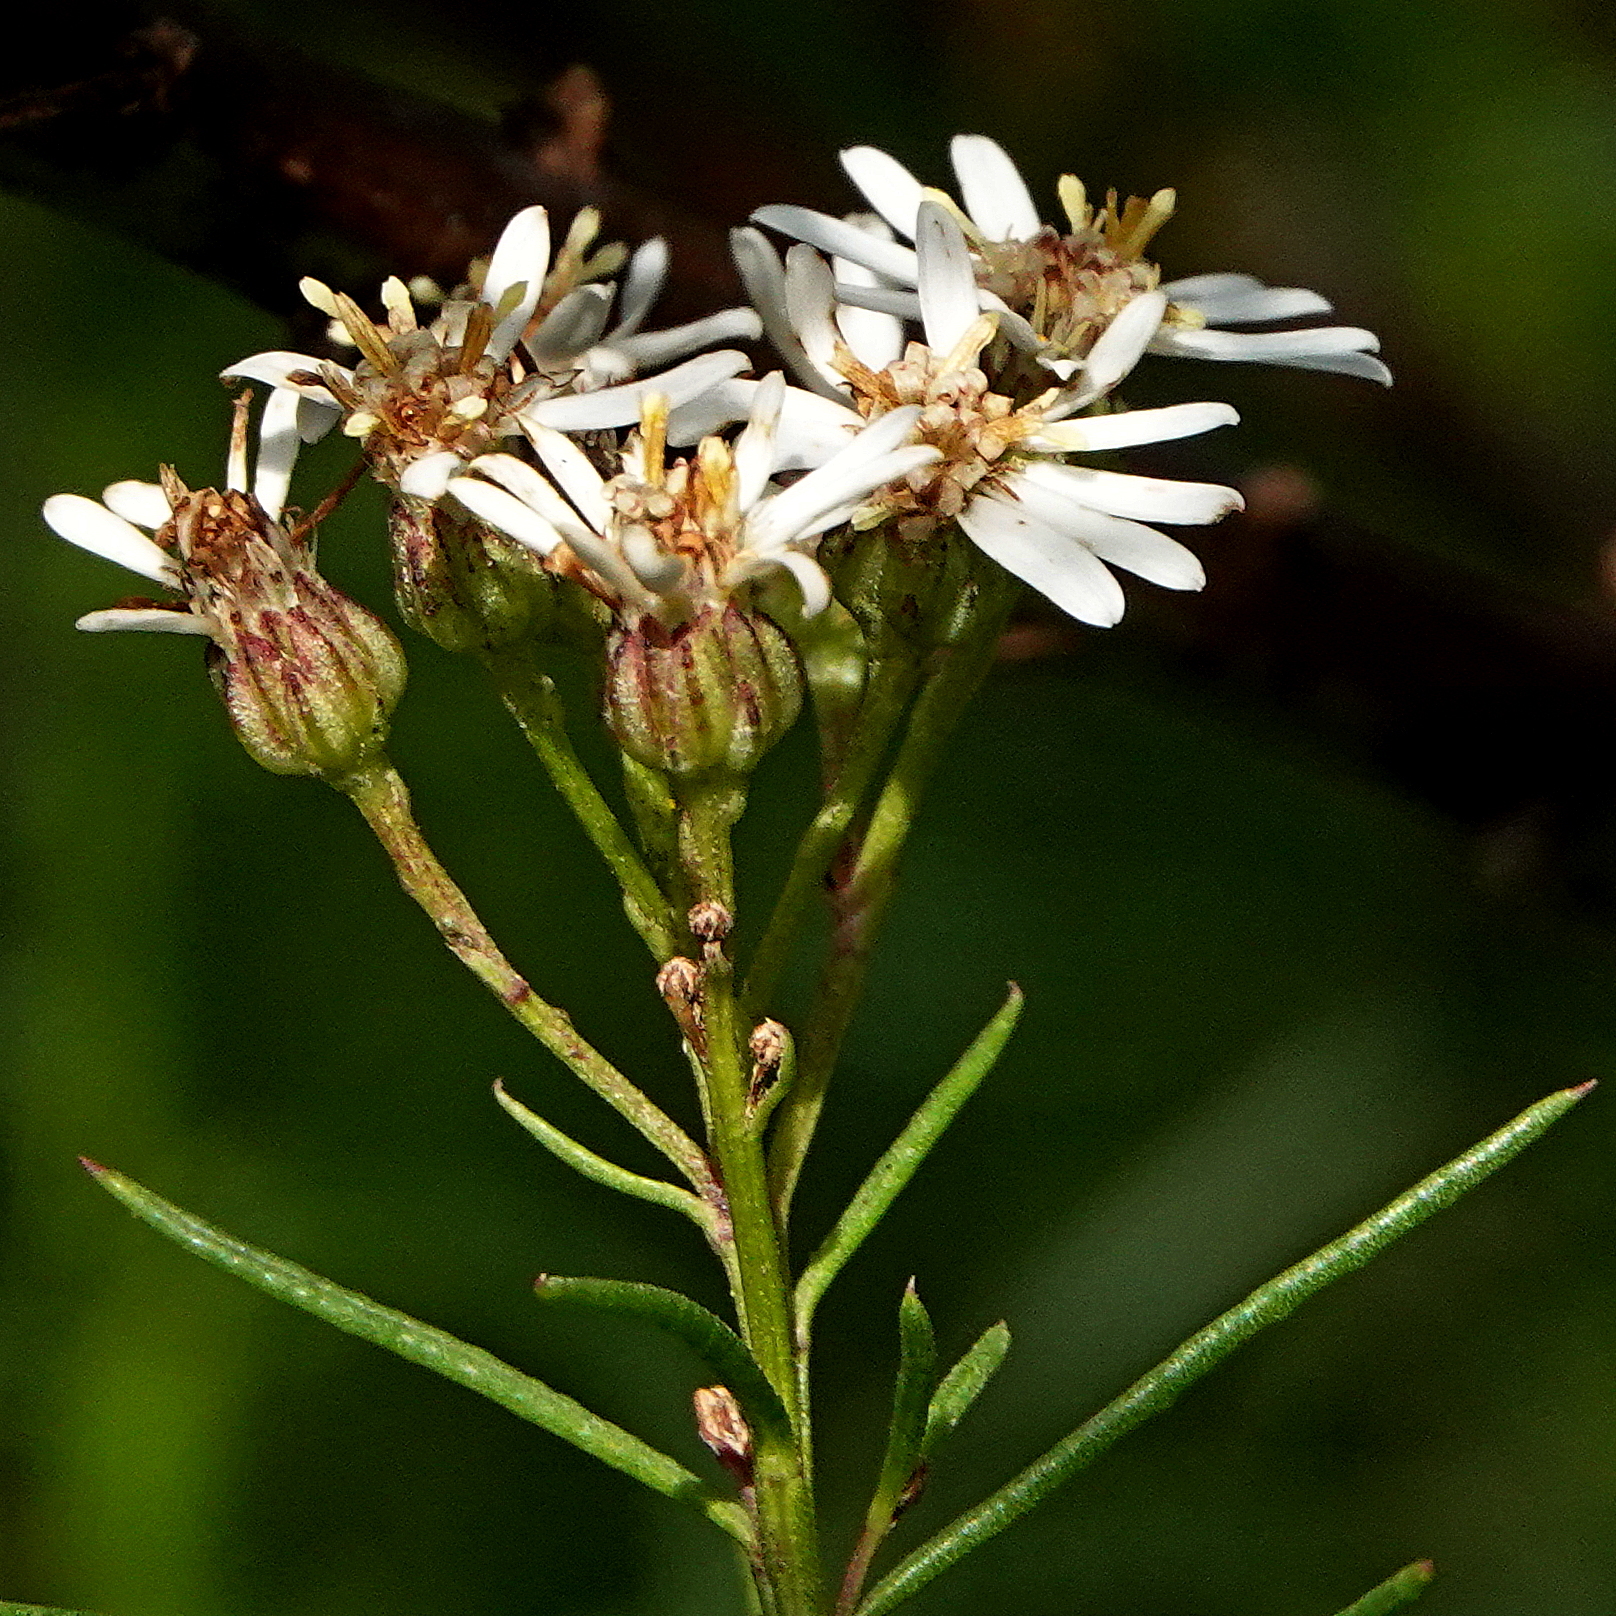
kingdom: Plantae
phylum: Tracheophyta
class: Magnoliopsida
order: Asterales
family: Asteraceae
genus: Spongotrichum
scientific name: Spongotrichum glandulosum
